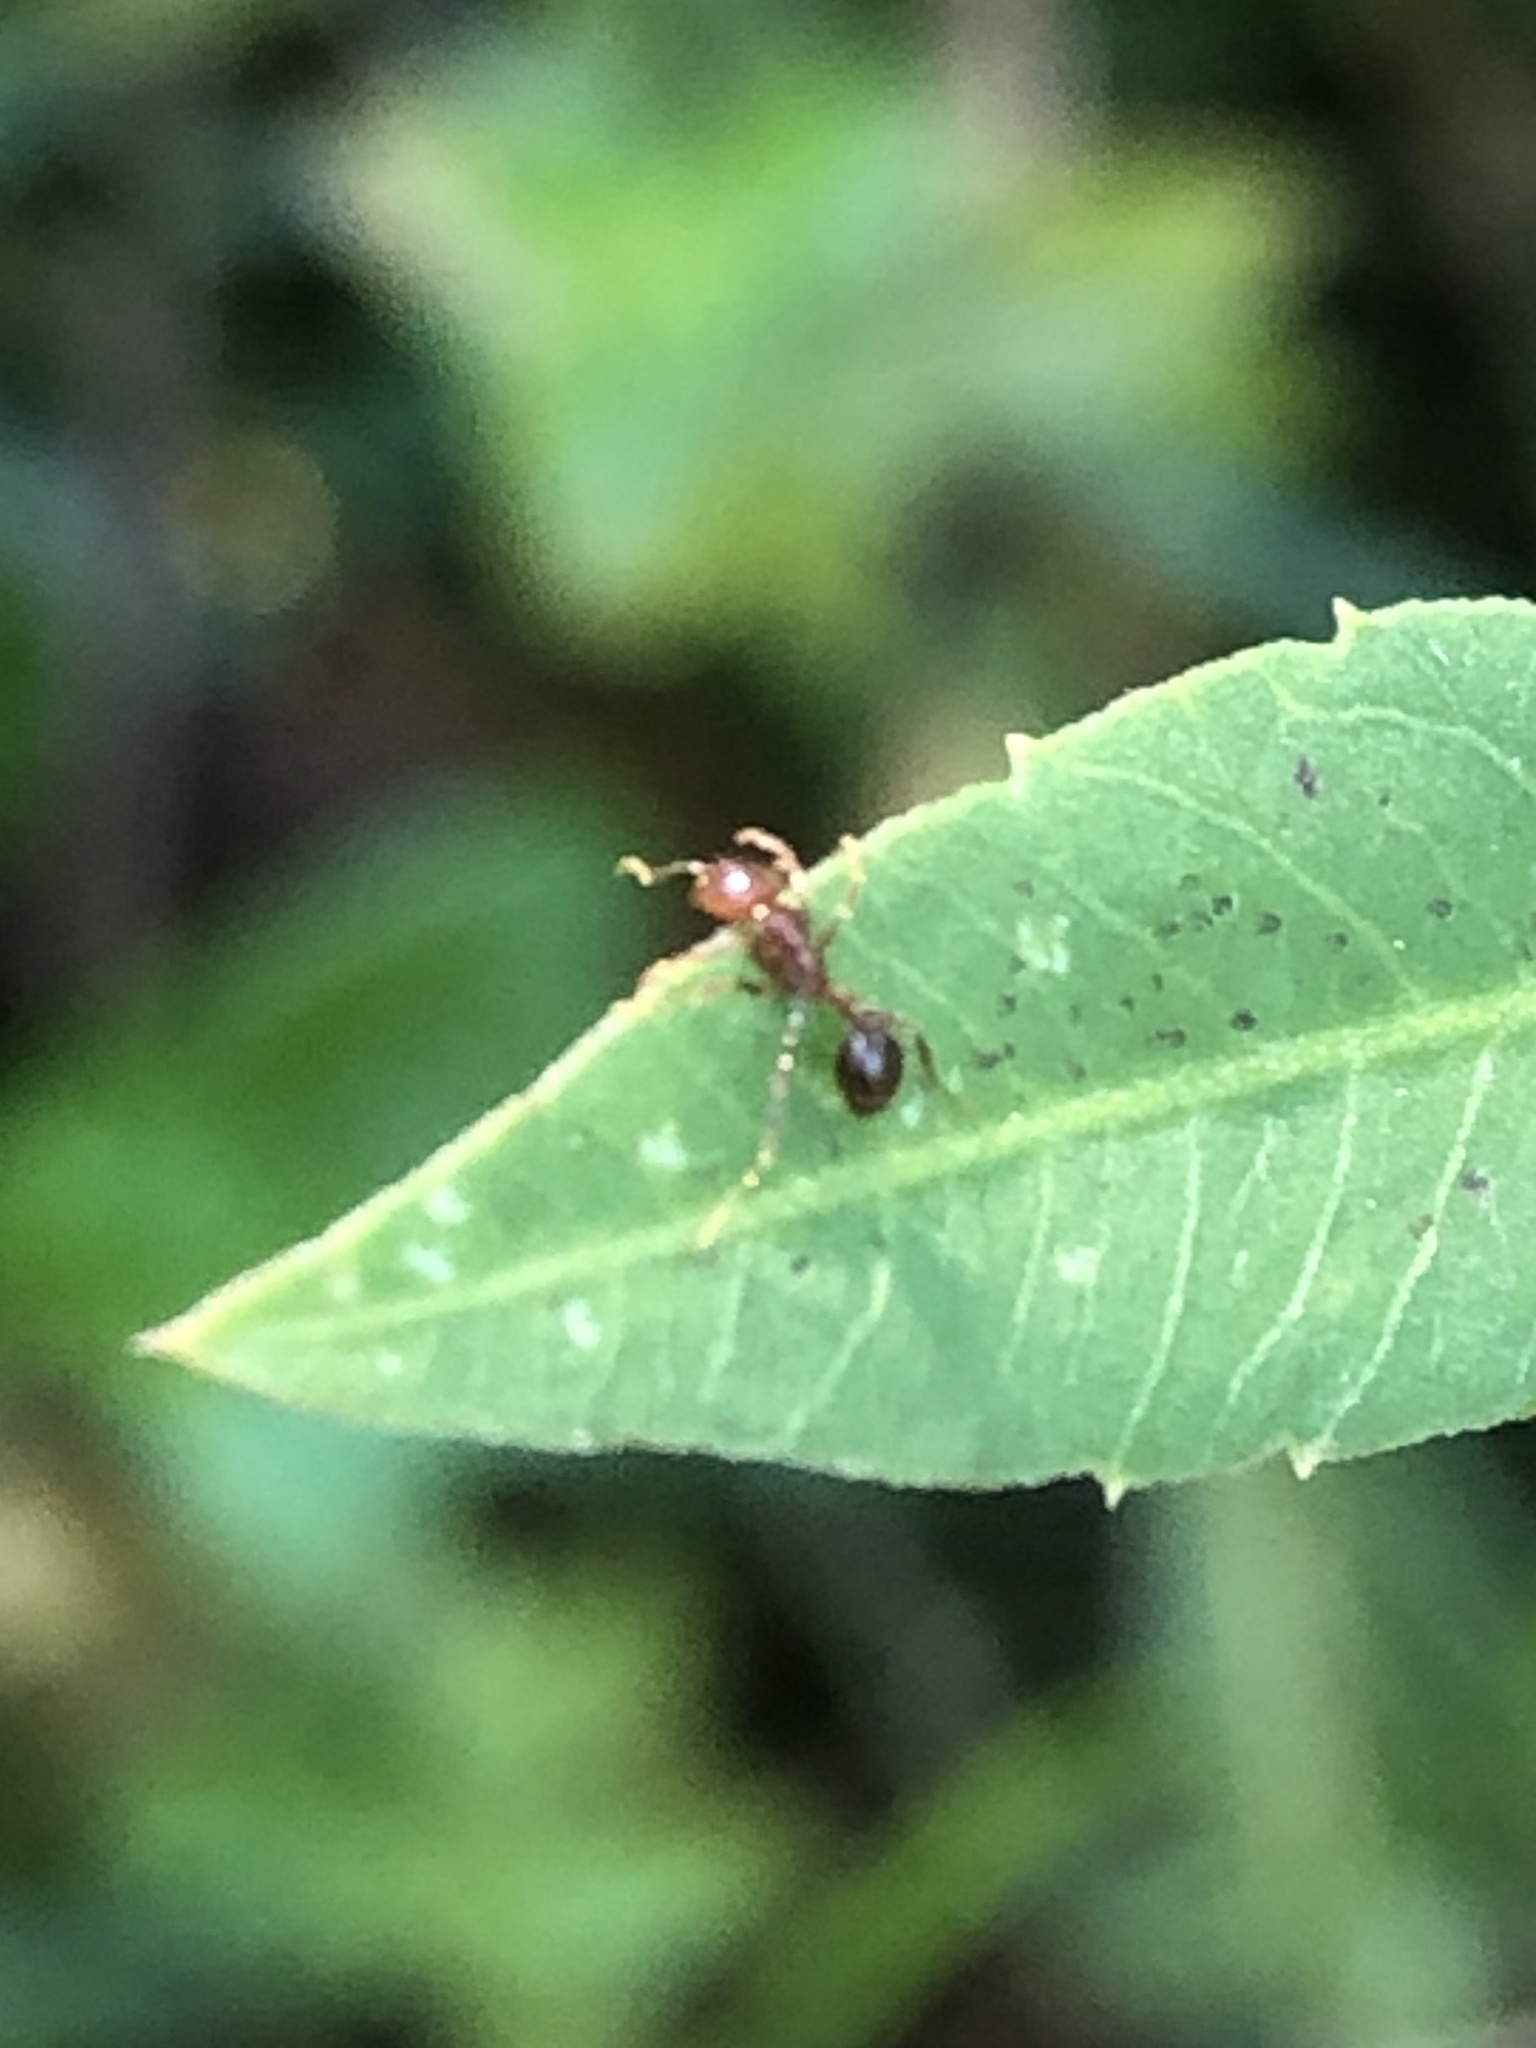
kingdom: Animalia
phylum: Arthropoda
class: Insecta
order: Hymenoptera
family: Formicidae
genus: Solenopsis
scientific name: Solenopsis invicta
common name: Red imported fire ant
